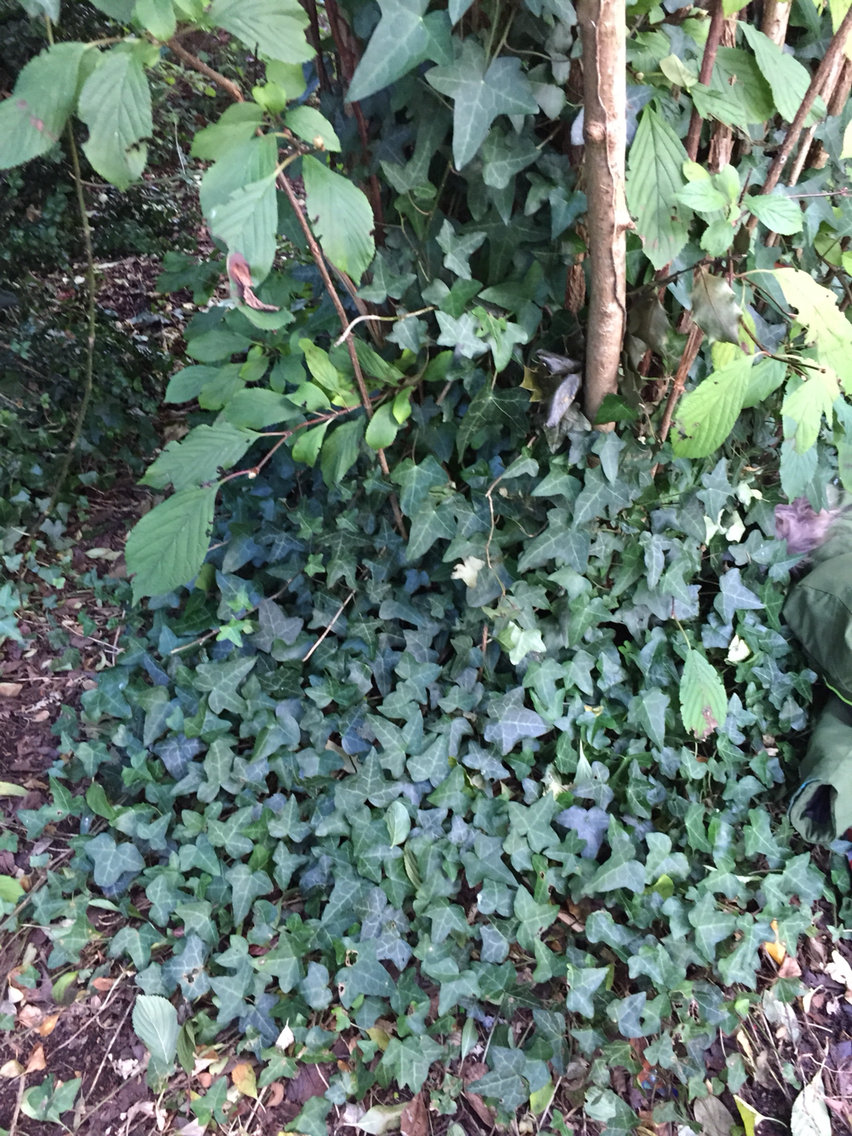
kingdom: Plantae
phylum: Tracheophyta
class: Magnoliopsida
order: Apiales
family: Araliaceae
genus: Hedera
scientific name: Hedera helix
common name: Ivy
